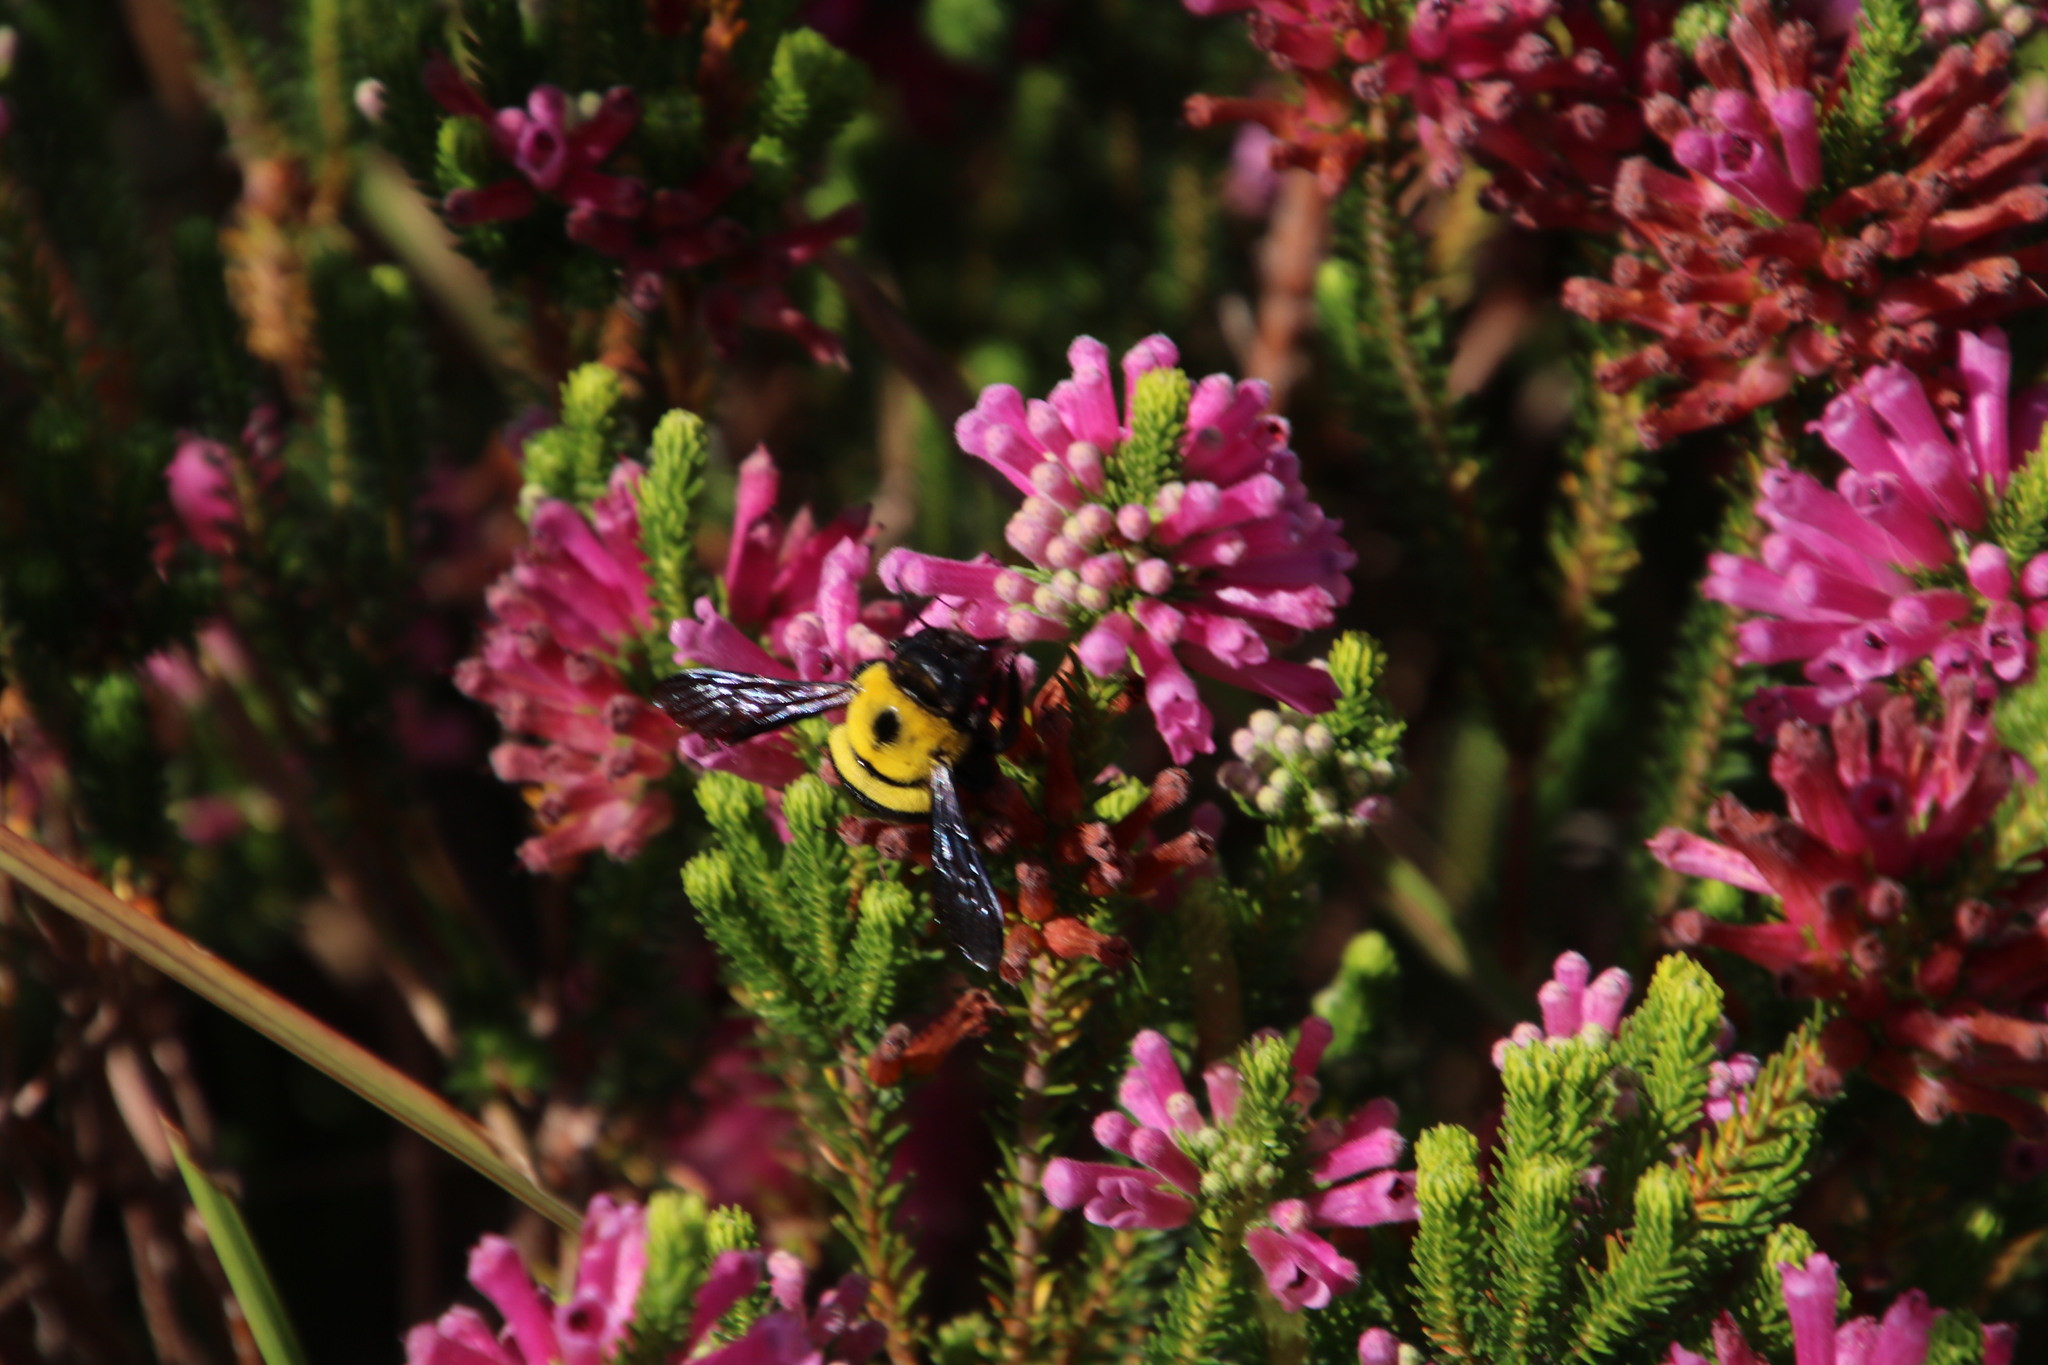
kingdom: Animalia
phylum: Arthropoda
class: Insecta
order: Hymenoptera
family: Apidae
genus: Xylocopa
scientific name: Xylocopa watmoughi
